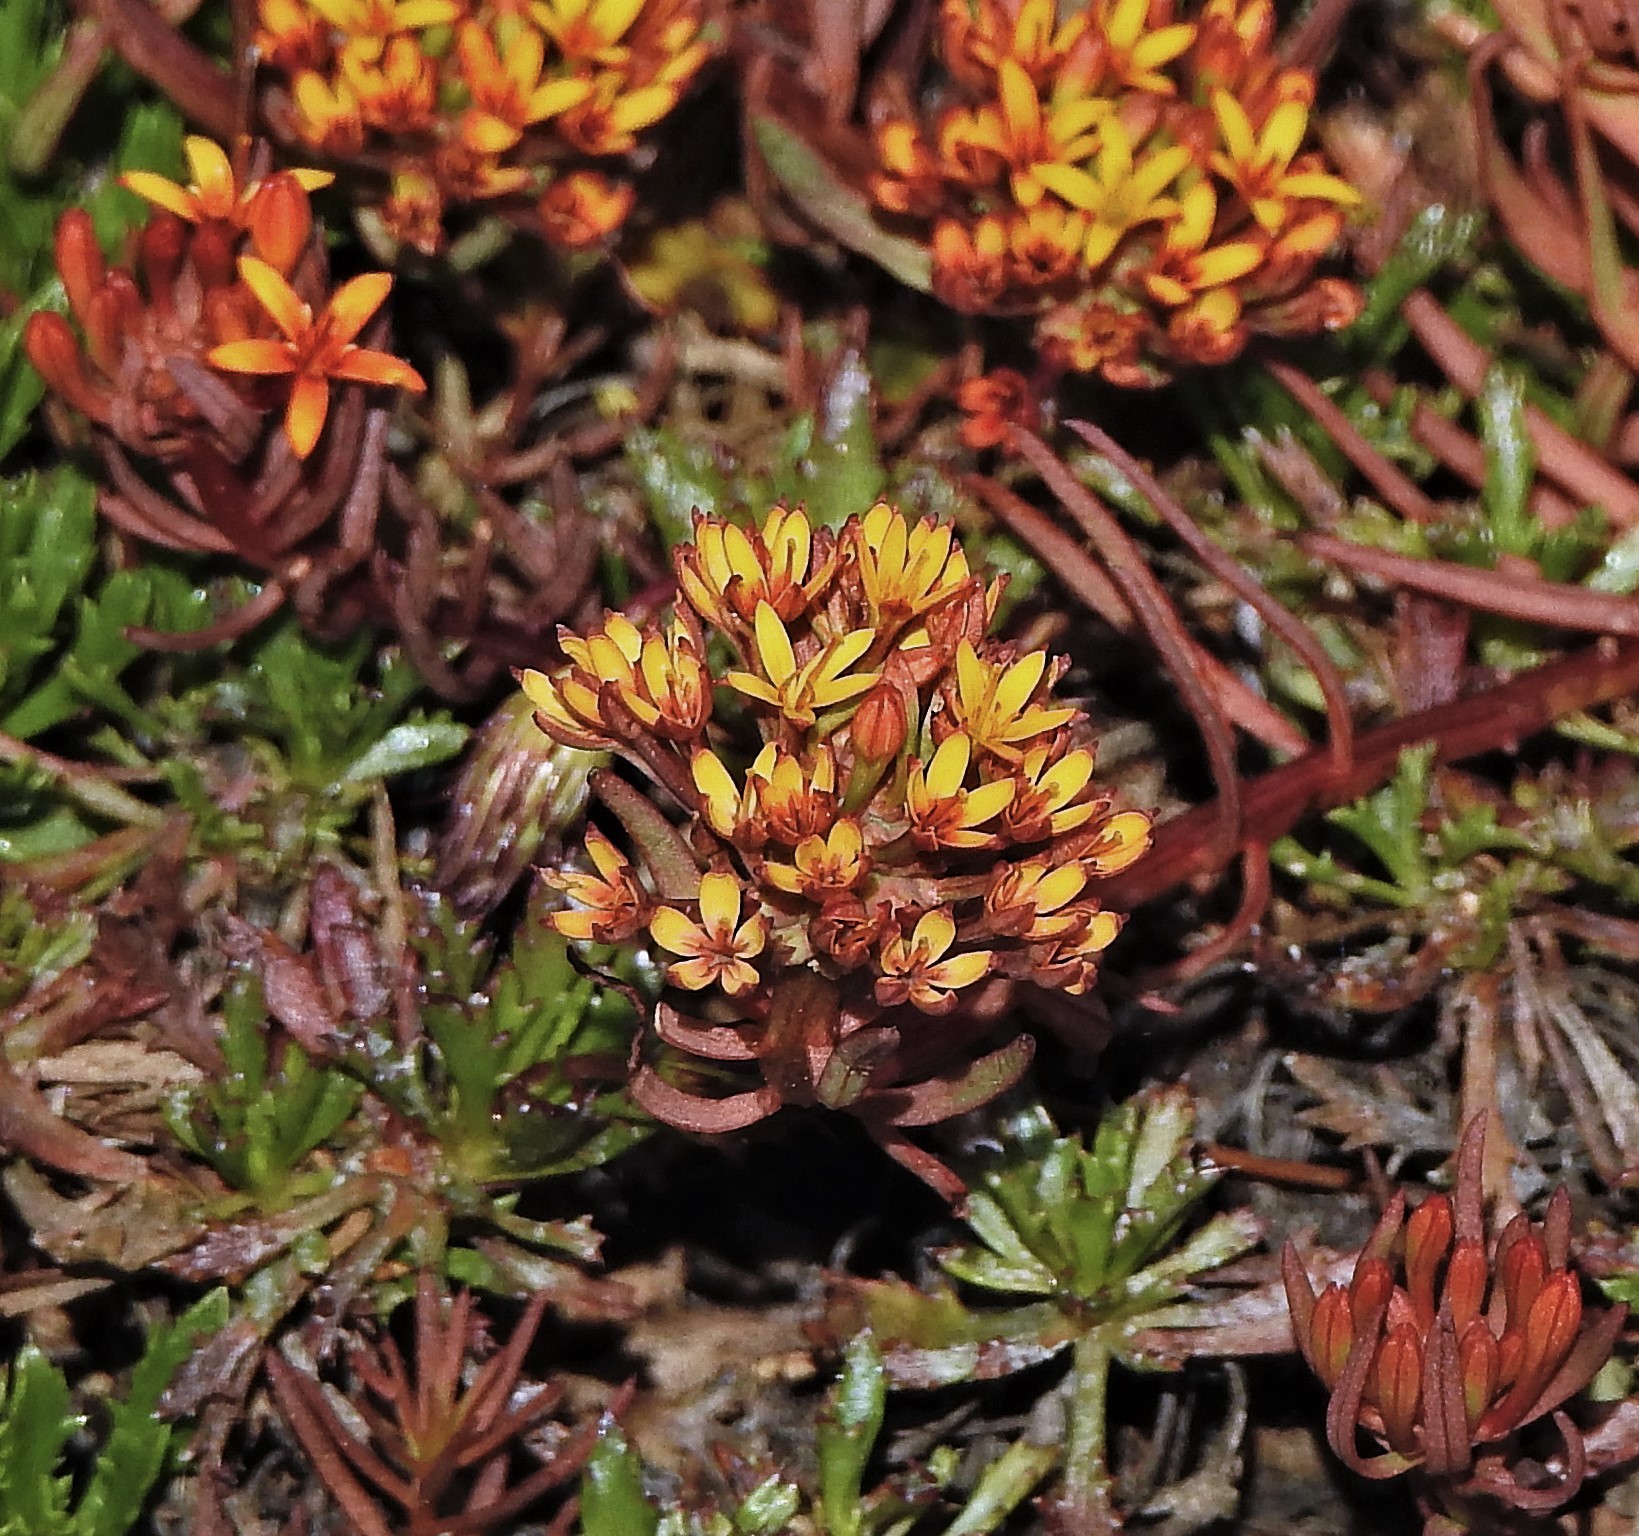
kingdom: Plantae
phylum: Tracheophyta
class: Magnoliopsida
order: Santalales
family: Schoepfiaceae
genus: Quinchamalium
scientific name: Quinchamalium chilense
